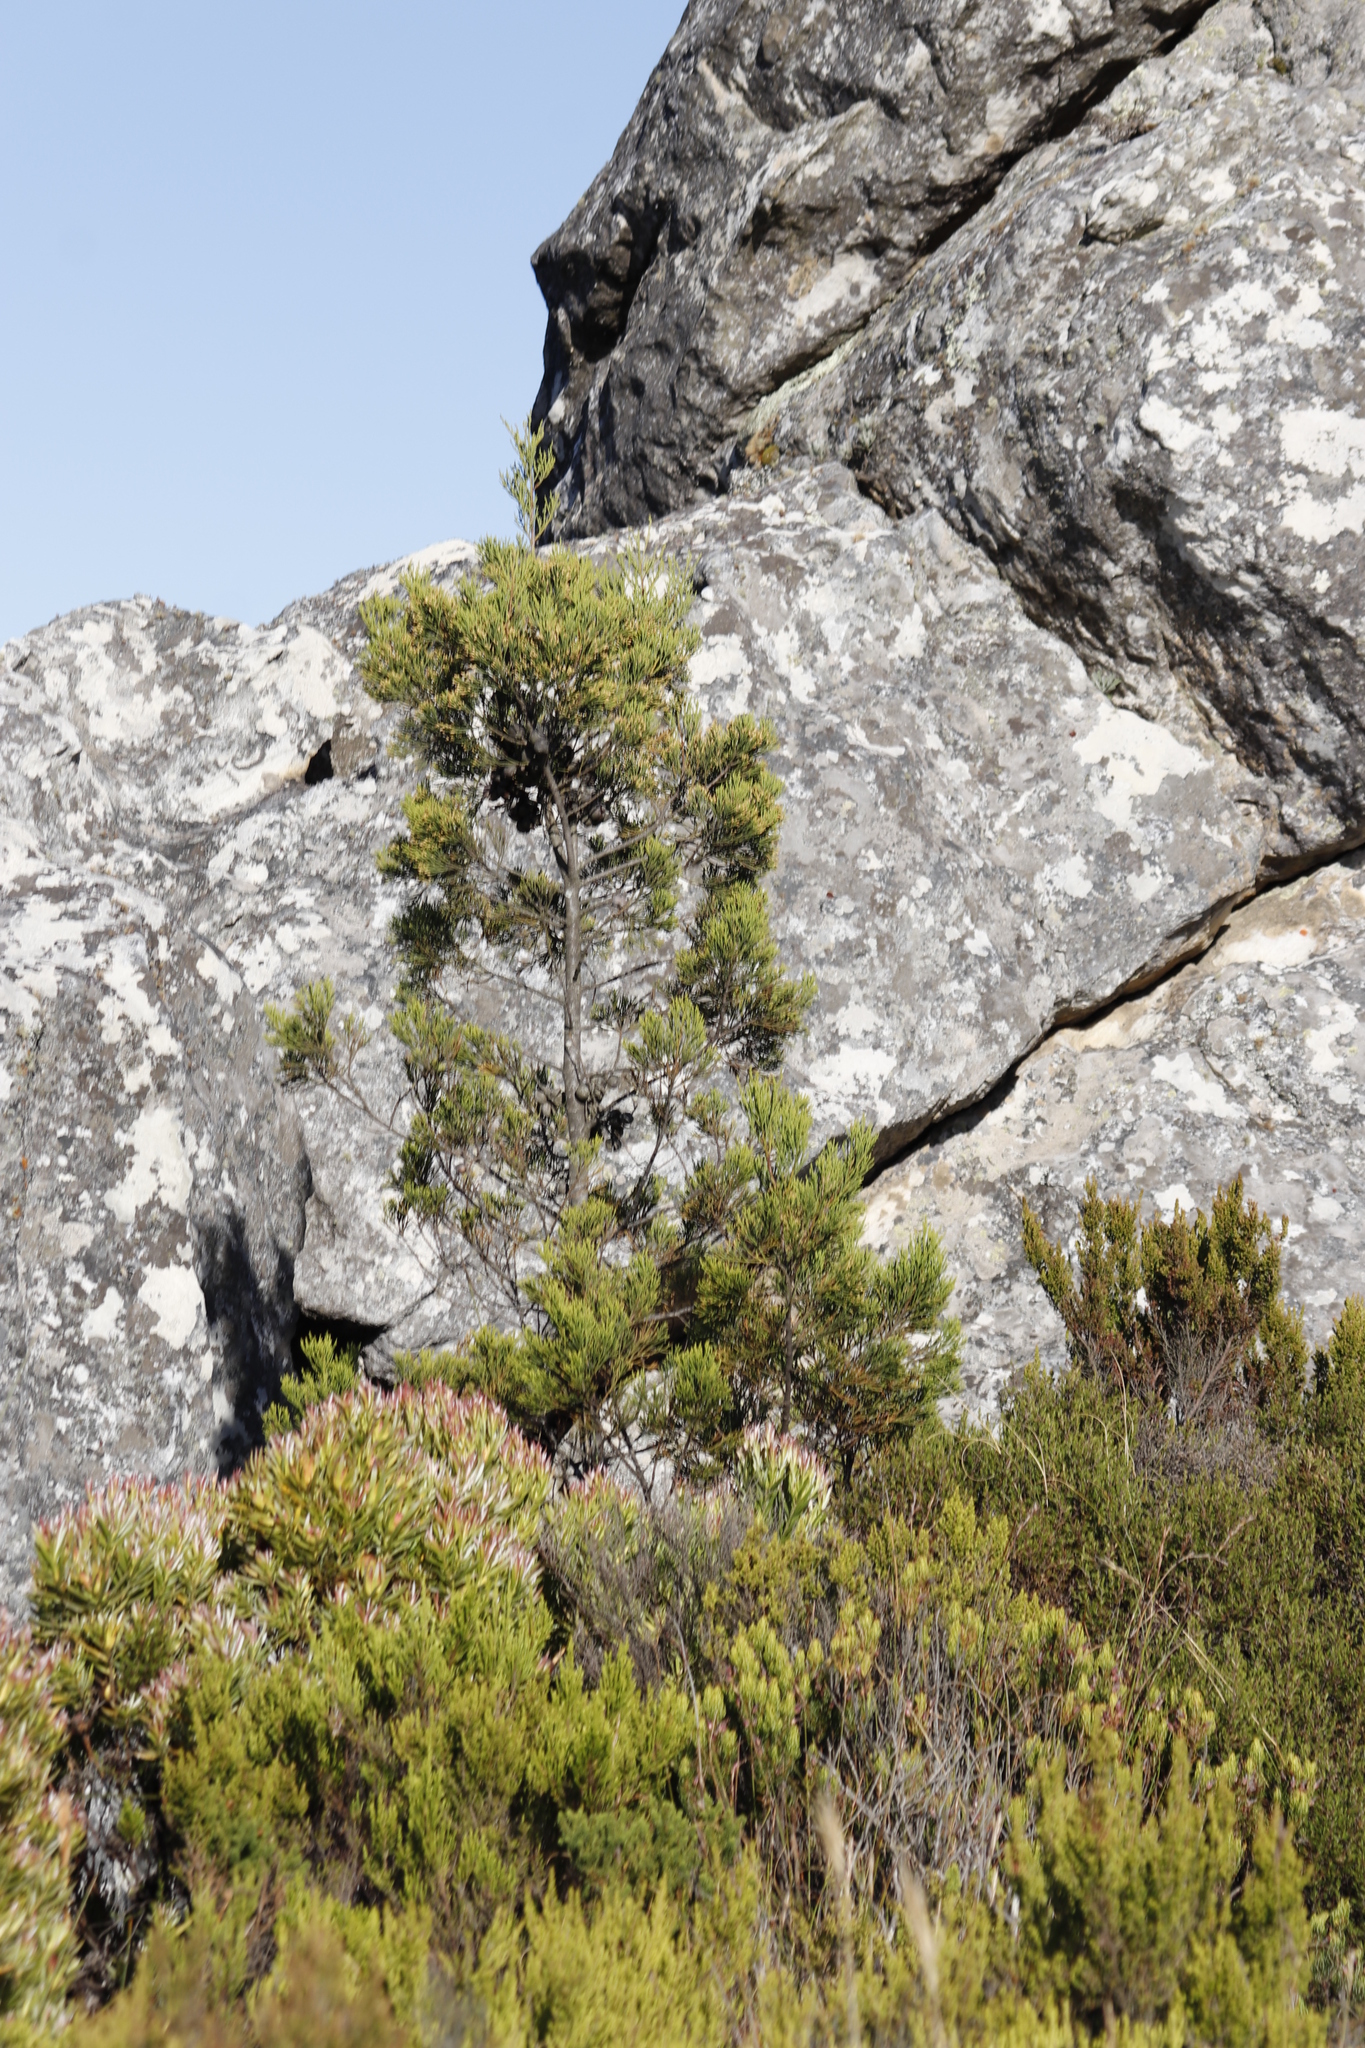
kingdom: Plantae
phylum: Tracheophyta
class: Pinopsida
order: Pinales
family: Cupressaceae
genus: Widdringtonia
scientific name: Widdringtonia nodiflora
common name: Cape cypress
